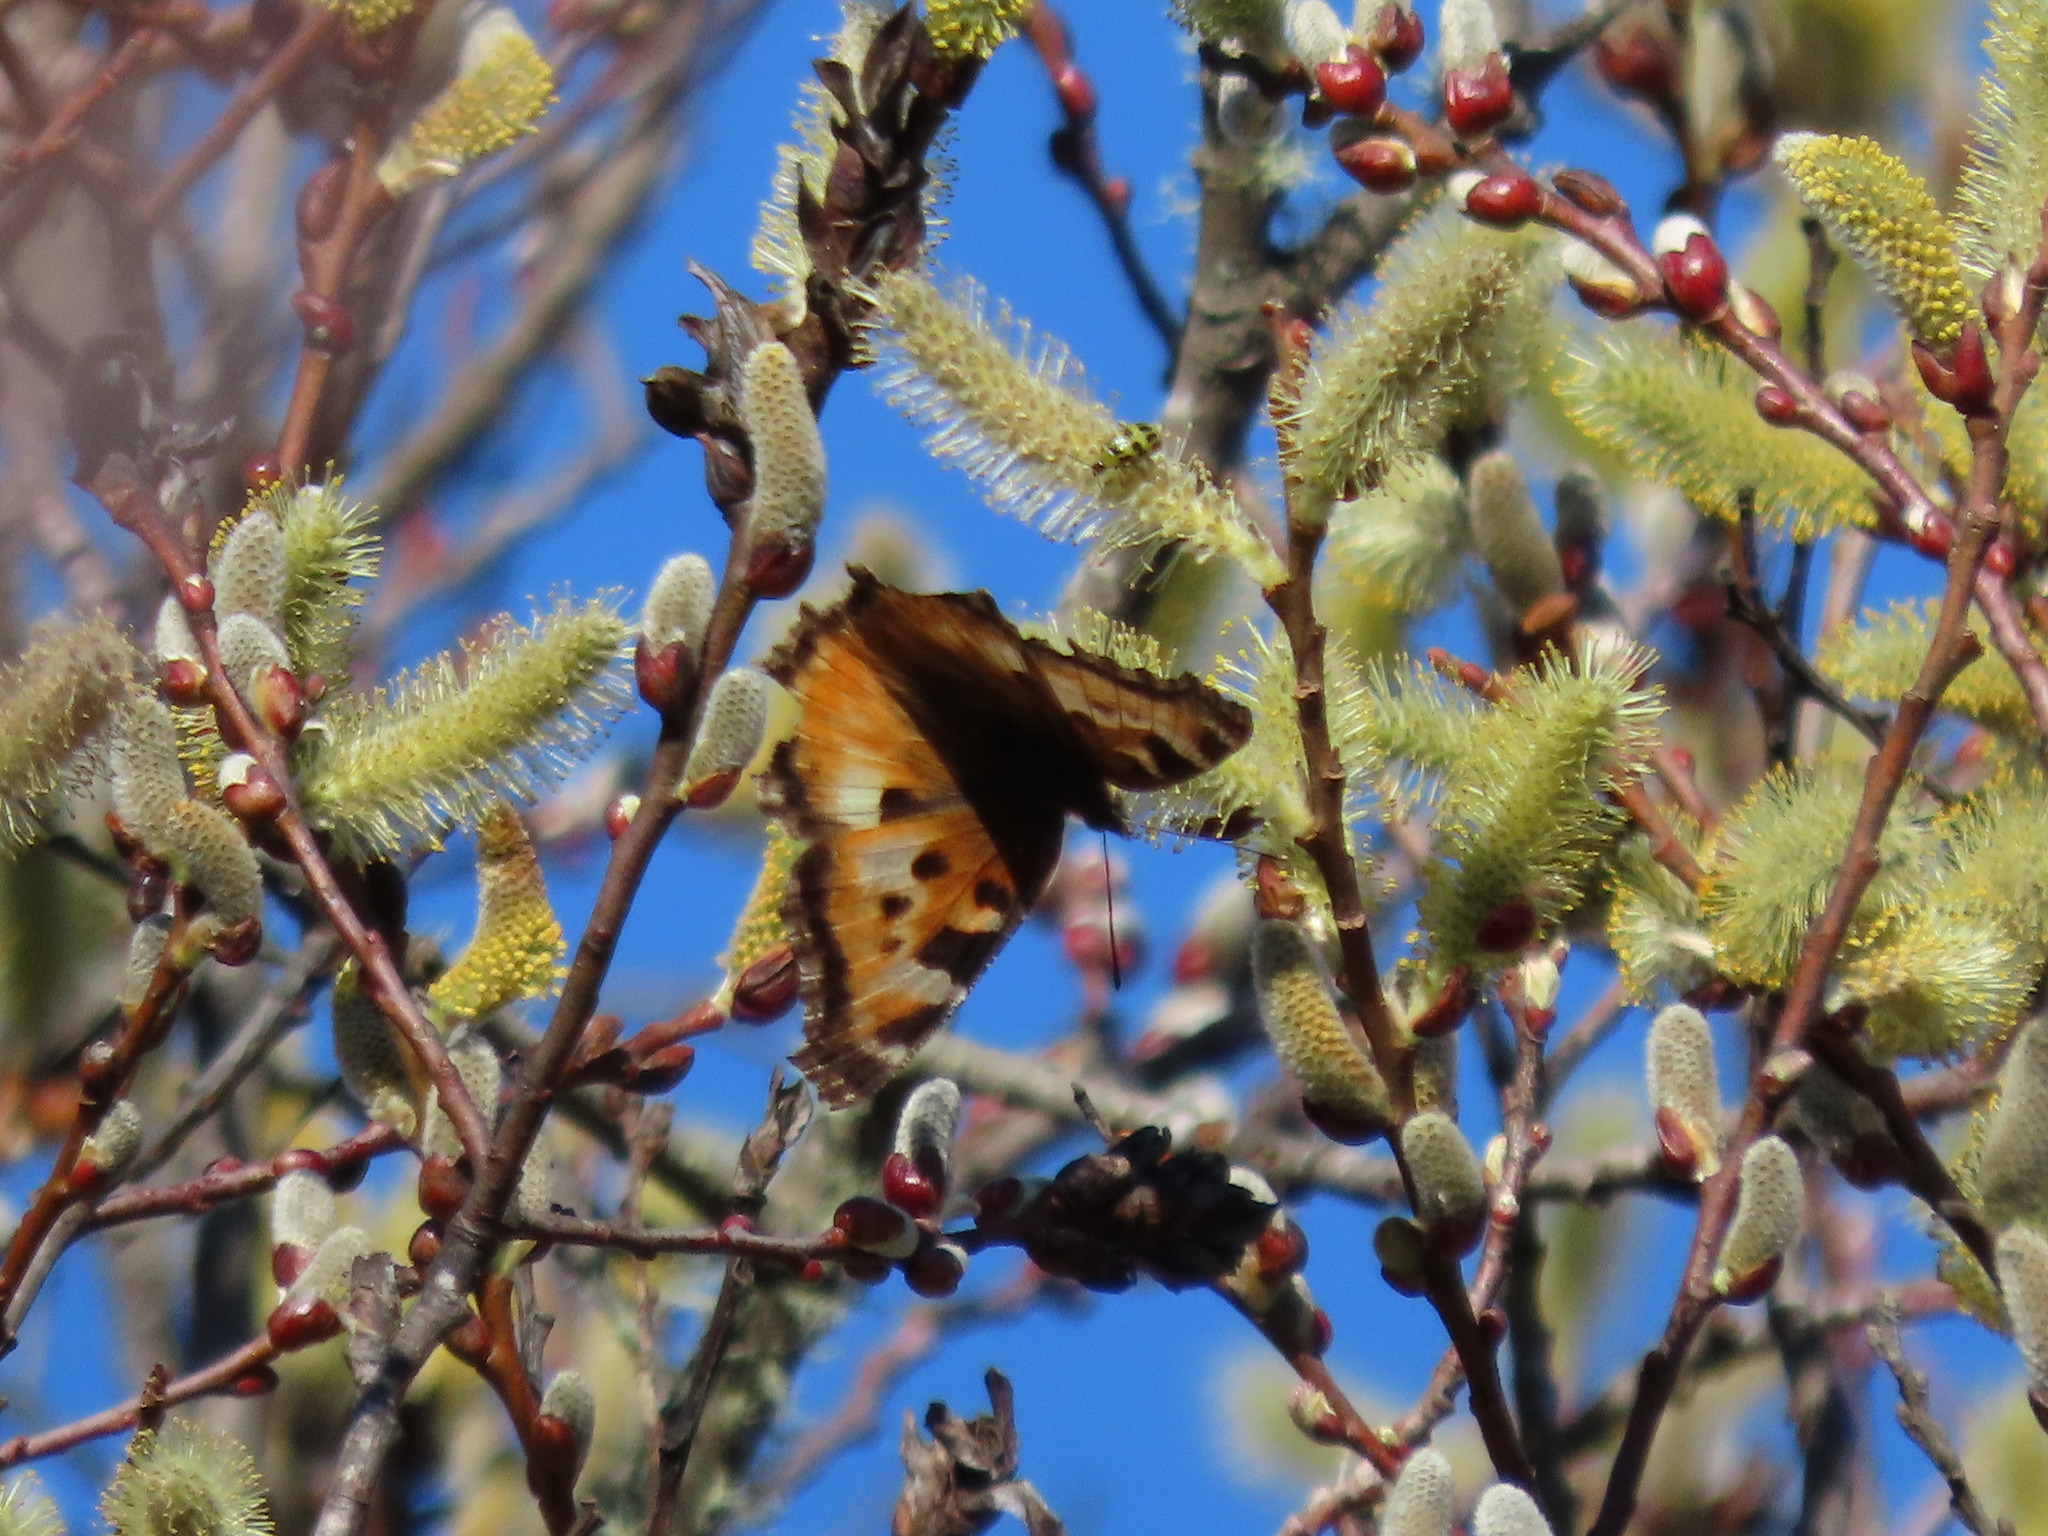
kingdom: Animalia
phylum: Arthropoda
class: Insecta
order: Lepidoptera
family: Nymphalidae
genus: Nymphalis
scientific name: Nymphalis californica
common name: California tortoiseshell
